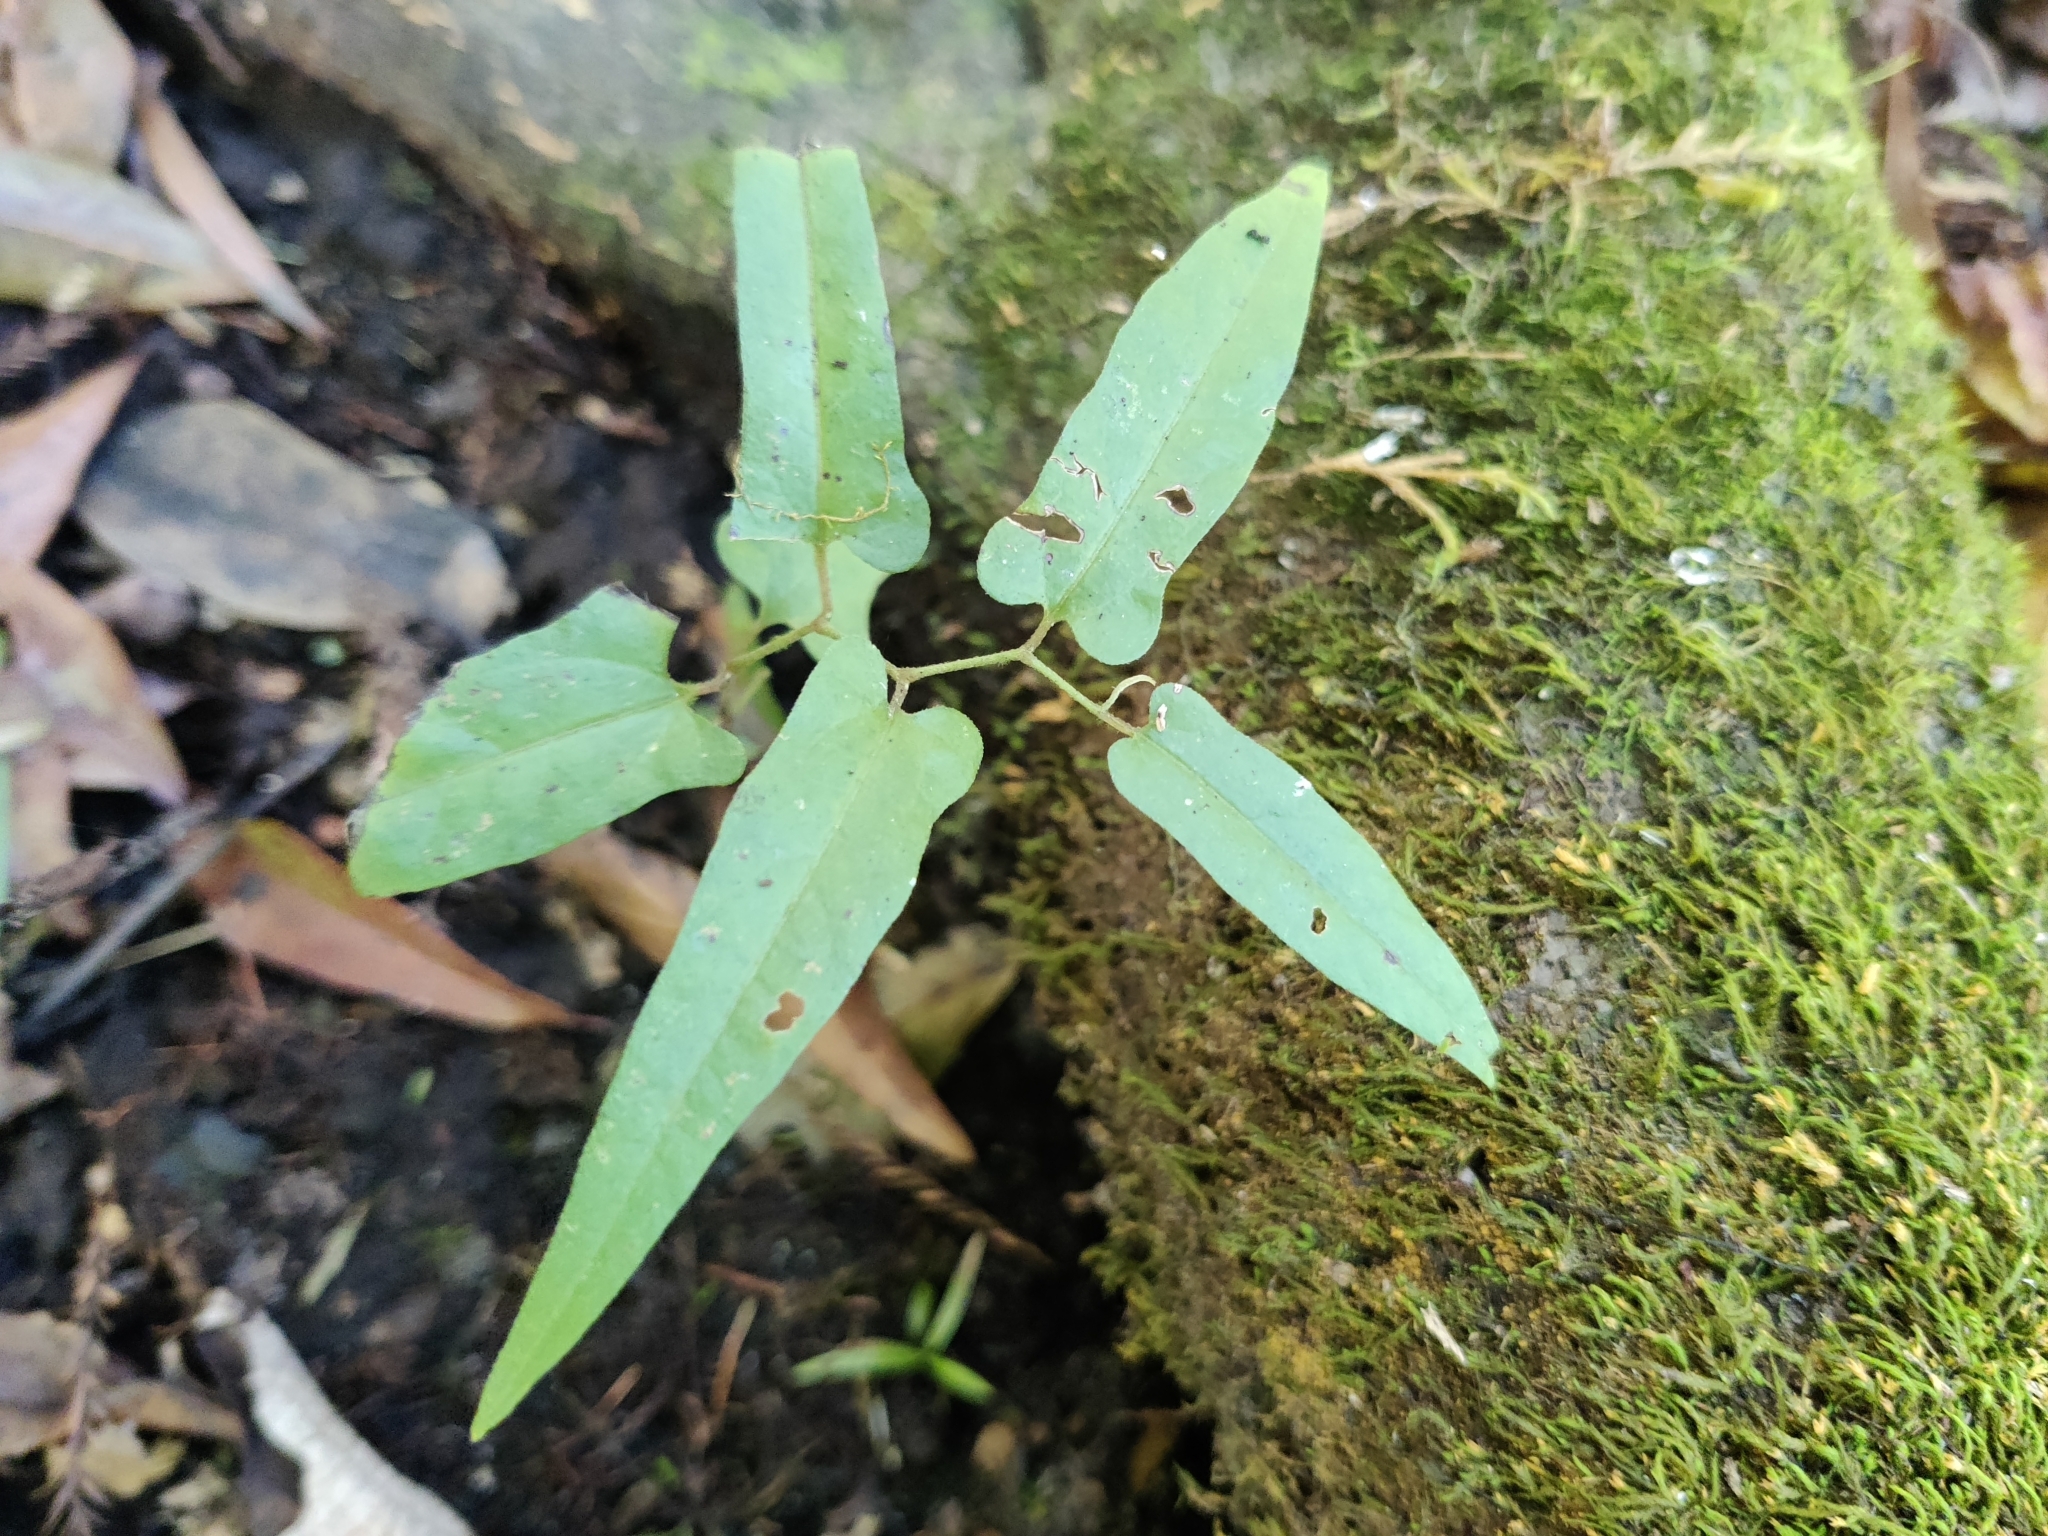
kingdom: Plantae
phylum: Tracheophyta
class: Magnoliopsida
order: Piperales
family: Aristolochiaceae
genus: Endodeca
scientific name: Endodeca serpentaria
